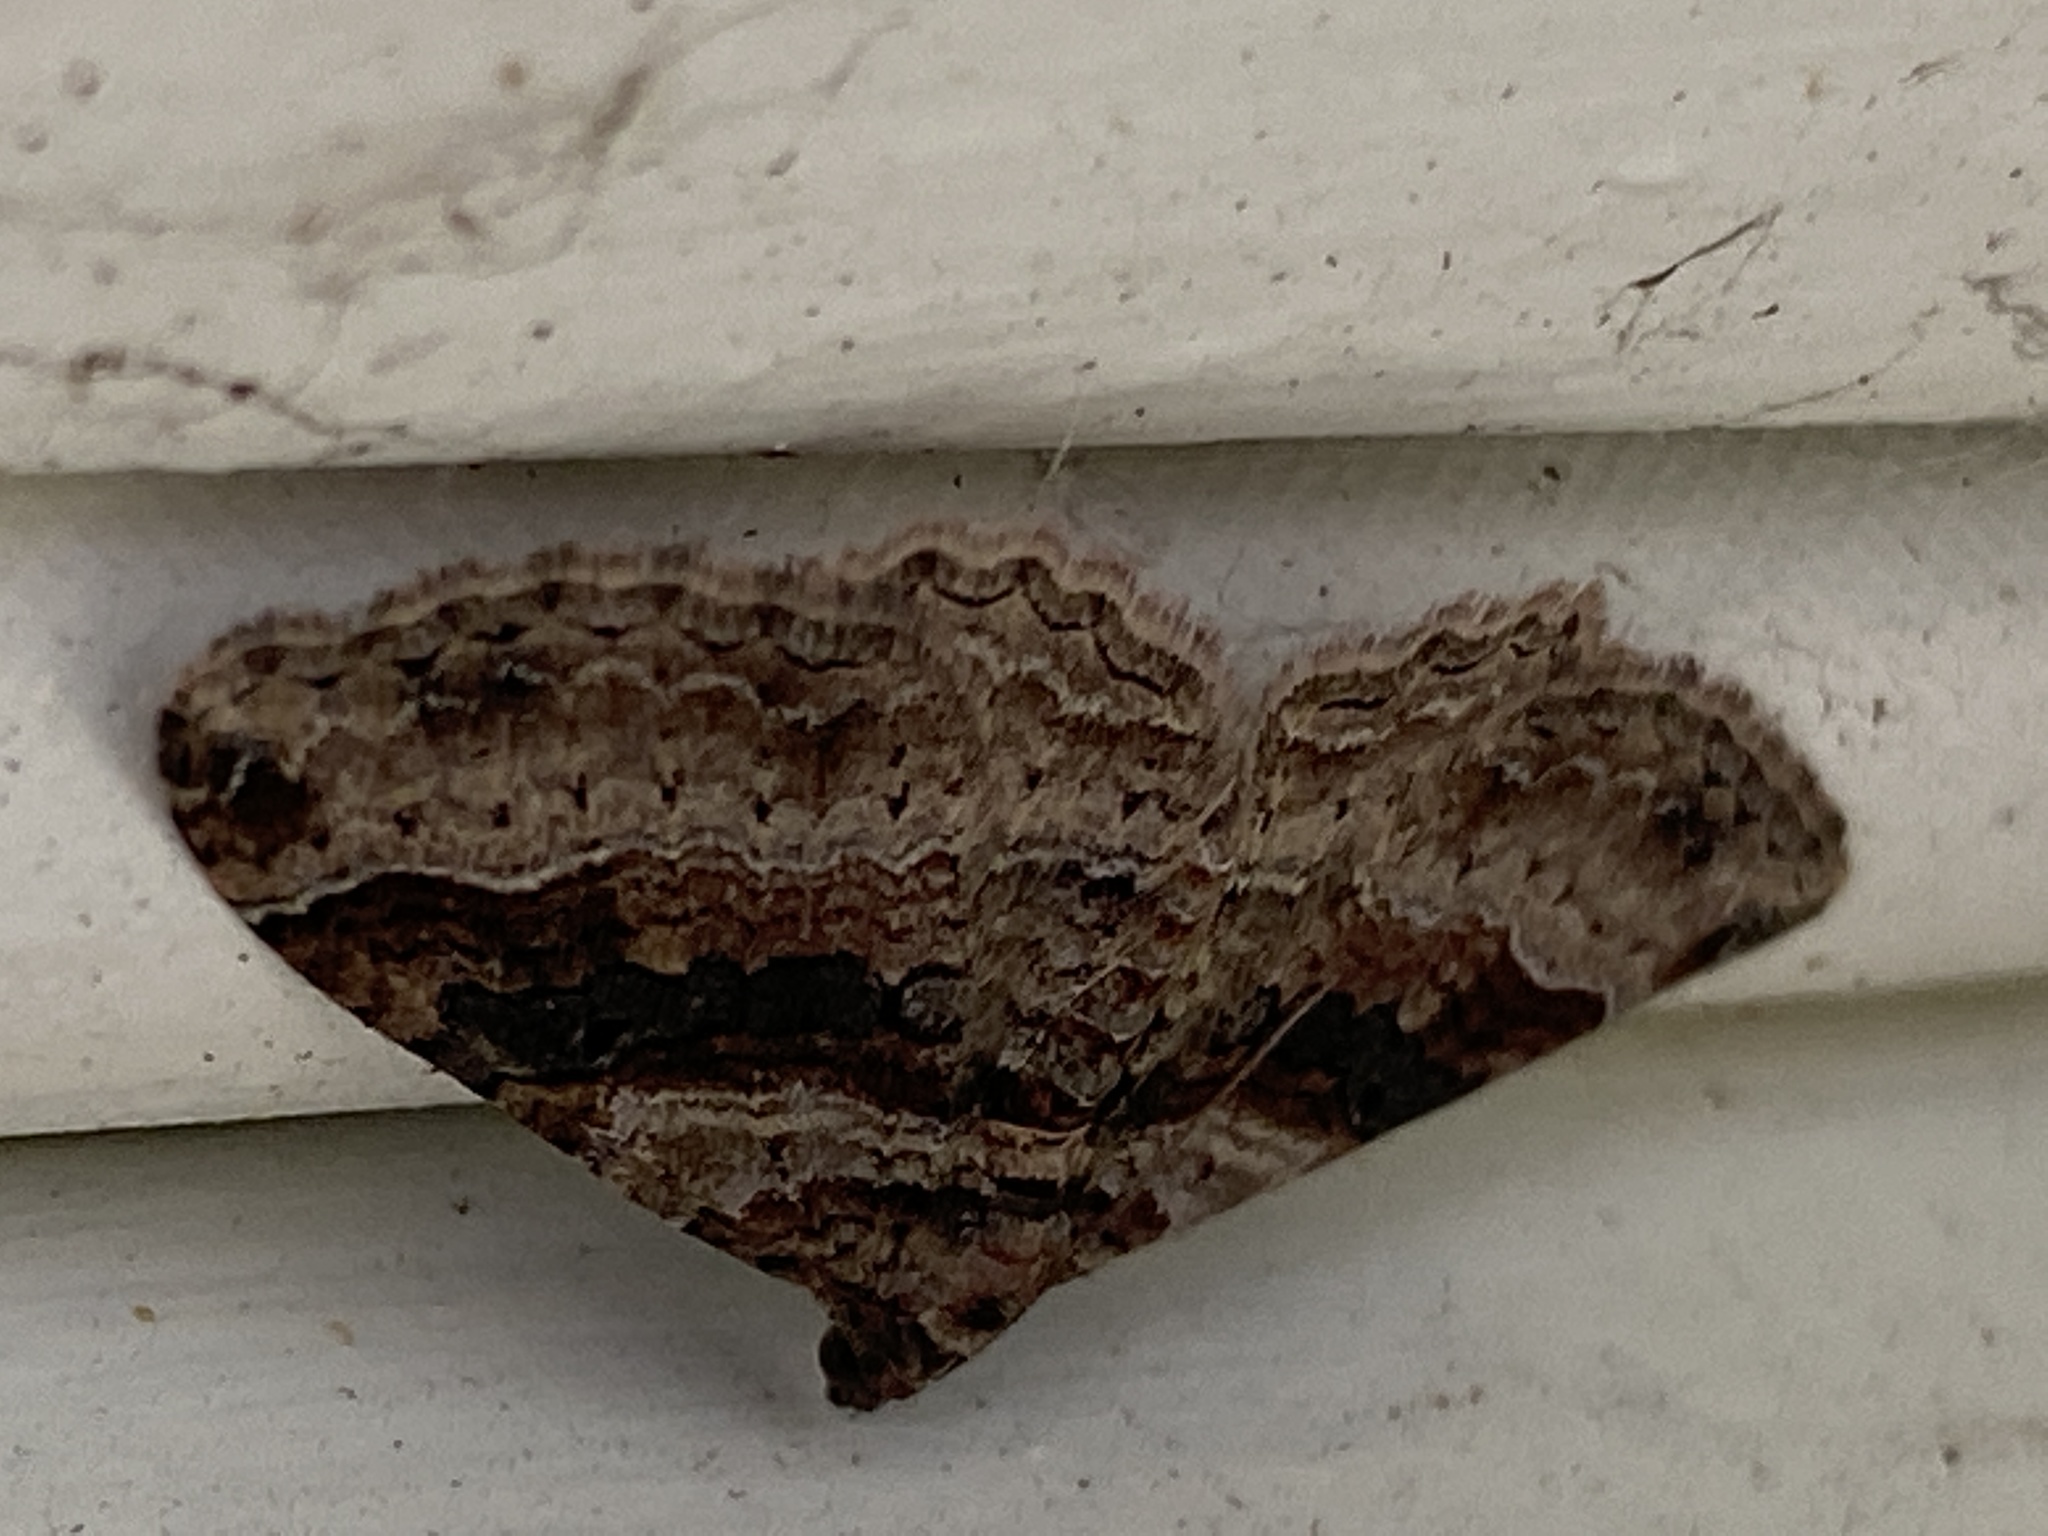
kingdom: Animalia
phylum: Arthropoda
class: Insecta
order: Lepidoptera
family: Geometridae
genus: Costaconvexa
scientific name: Costaconvexa centrostrigaria
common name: Bent-line carpet
